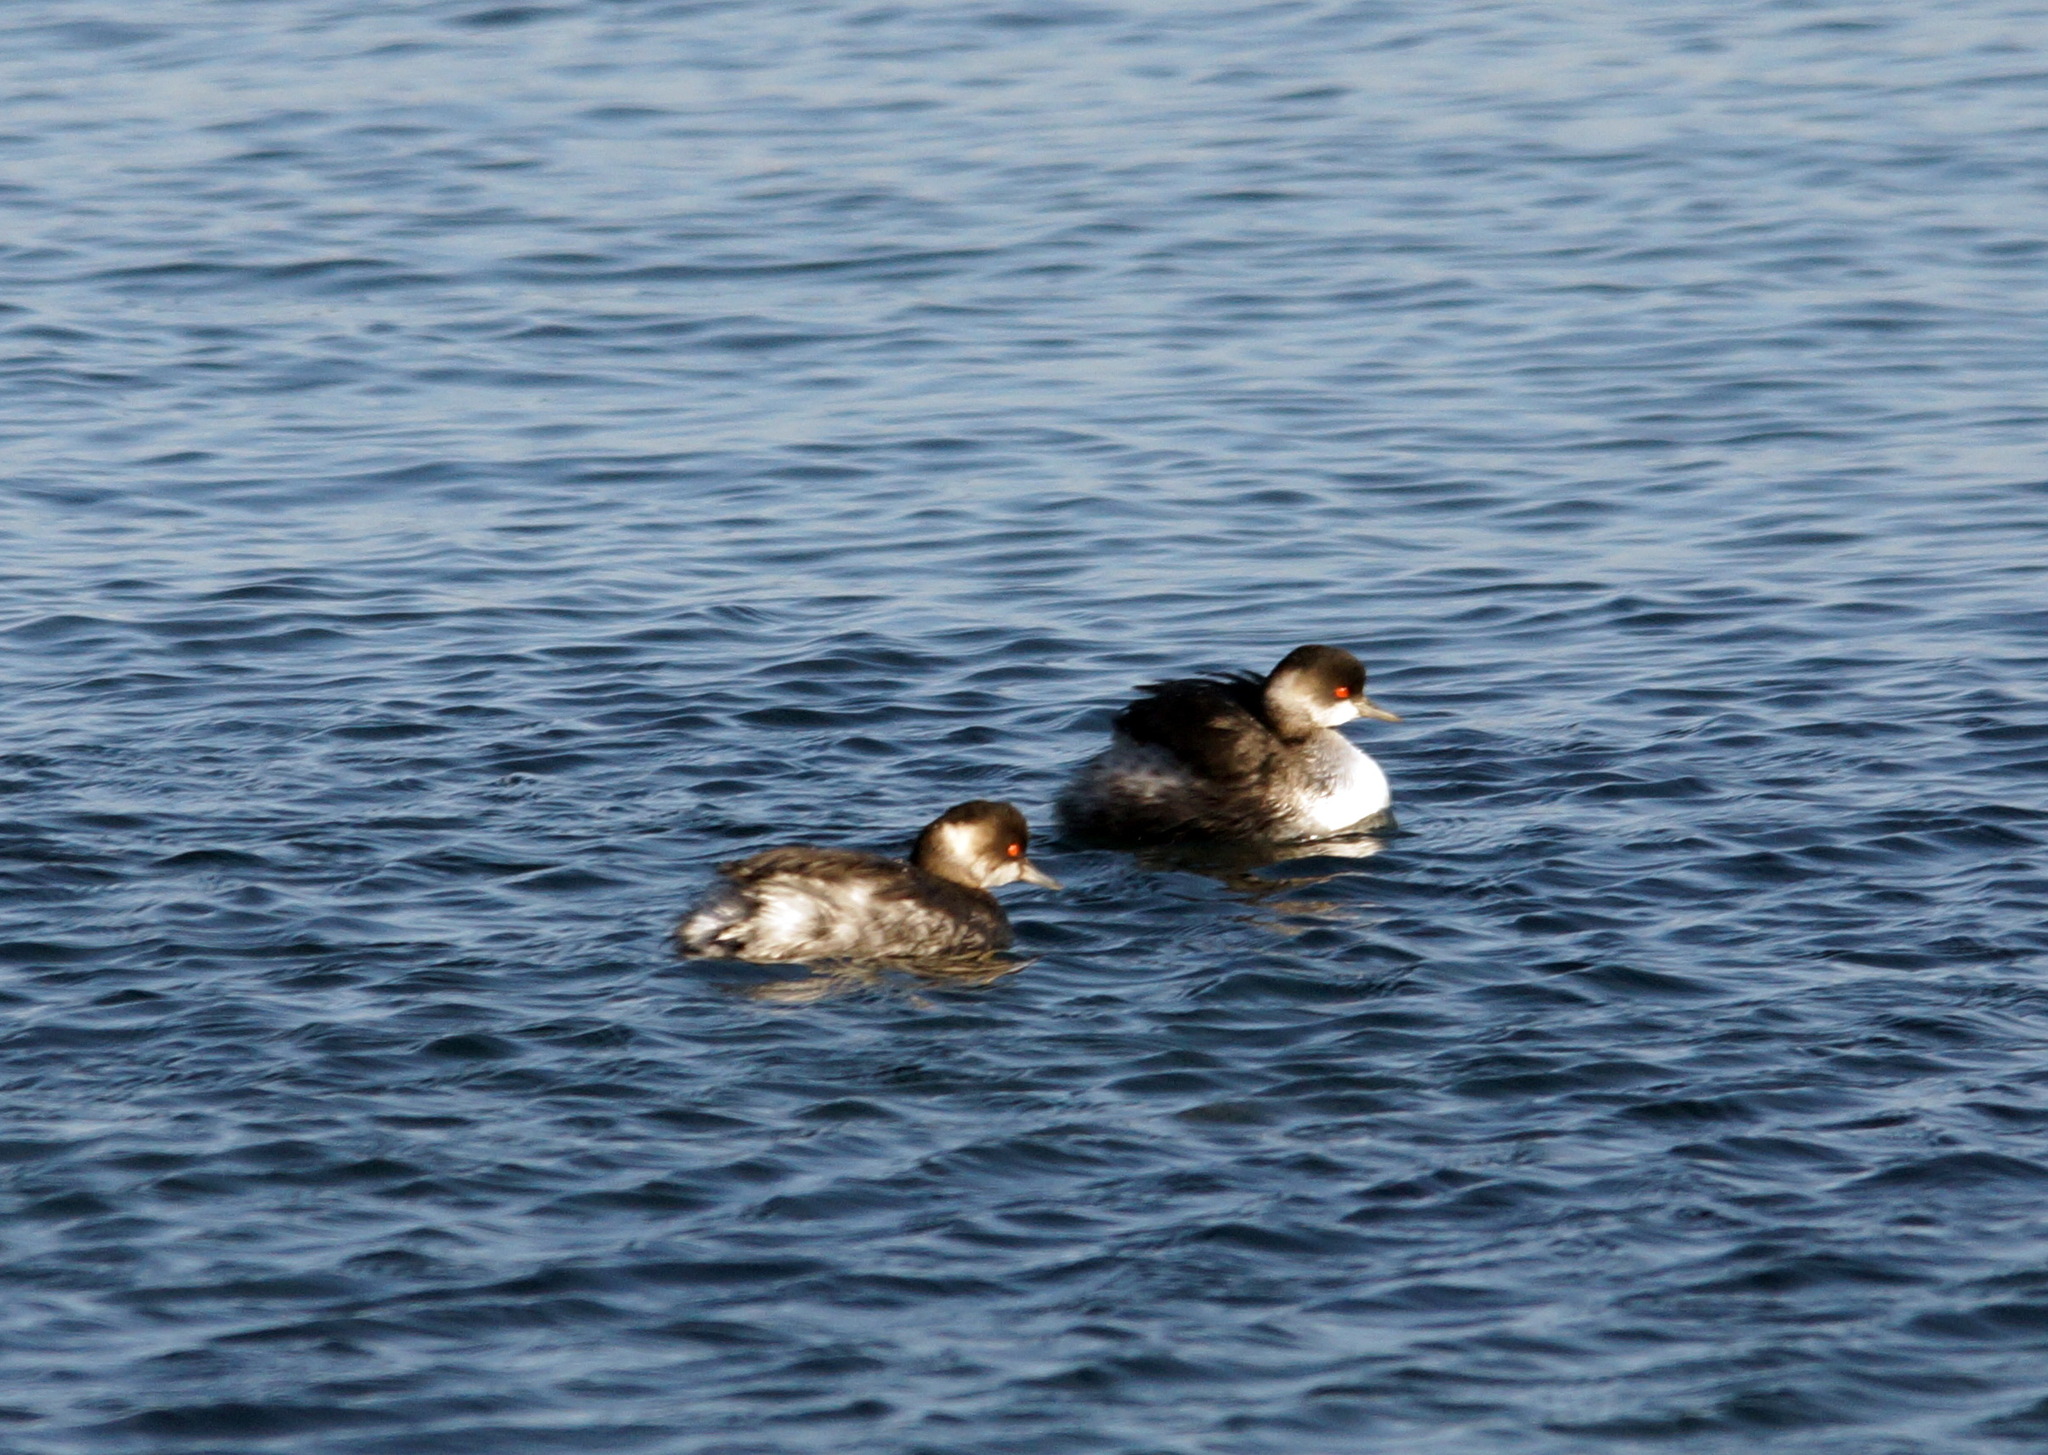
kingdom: Animalia
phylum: Chordata
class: Aves
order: Podicipediformes
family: Podicipedidae
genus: Podiceps
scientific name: Podiceps nigricollis
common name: Black-necked grebe
